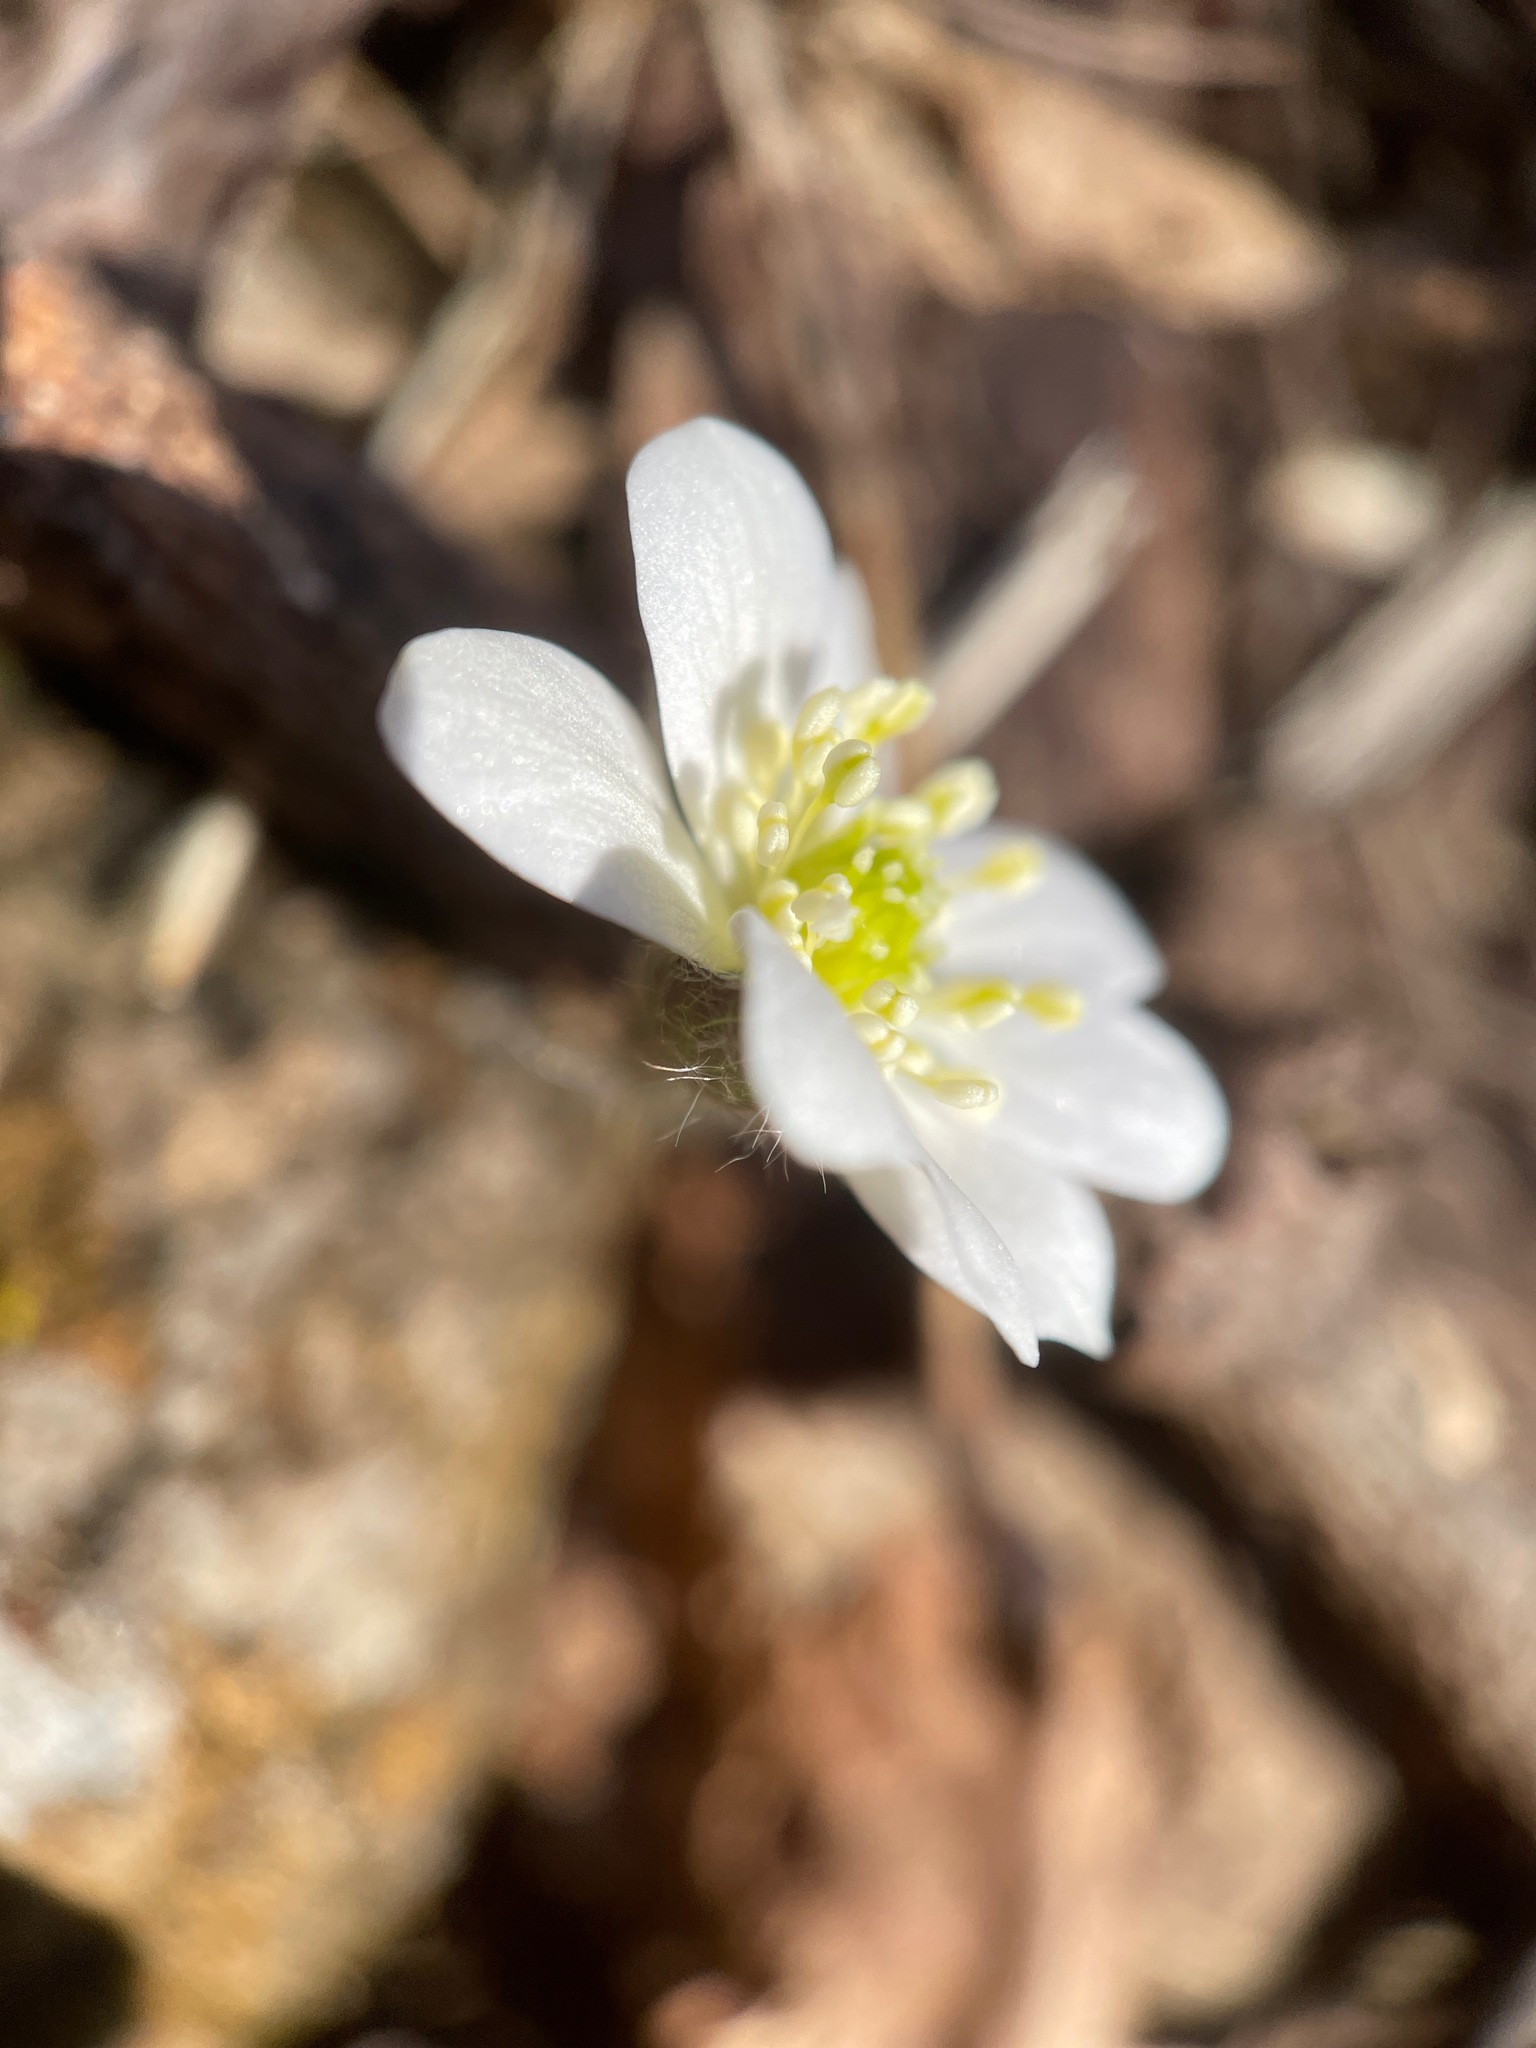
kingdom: Plantae
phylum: Tracheophyta
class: Magnoliopsida
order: Ranunculales
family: Ranunculaceae
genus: Hepatica
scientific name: Hepatica acutiloba
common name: Sharp-lobed hepatica
